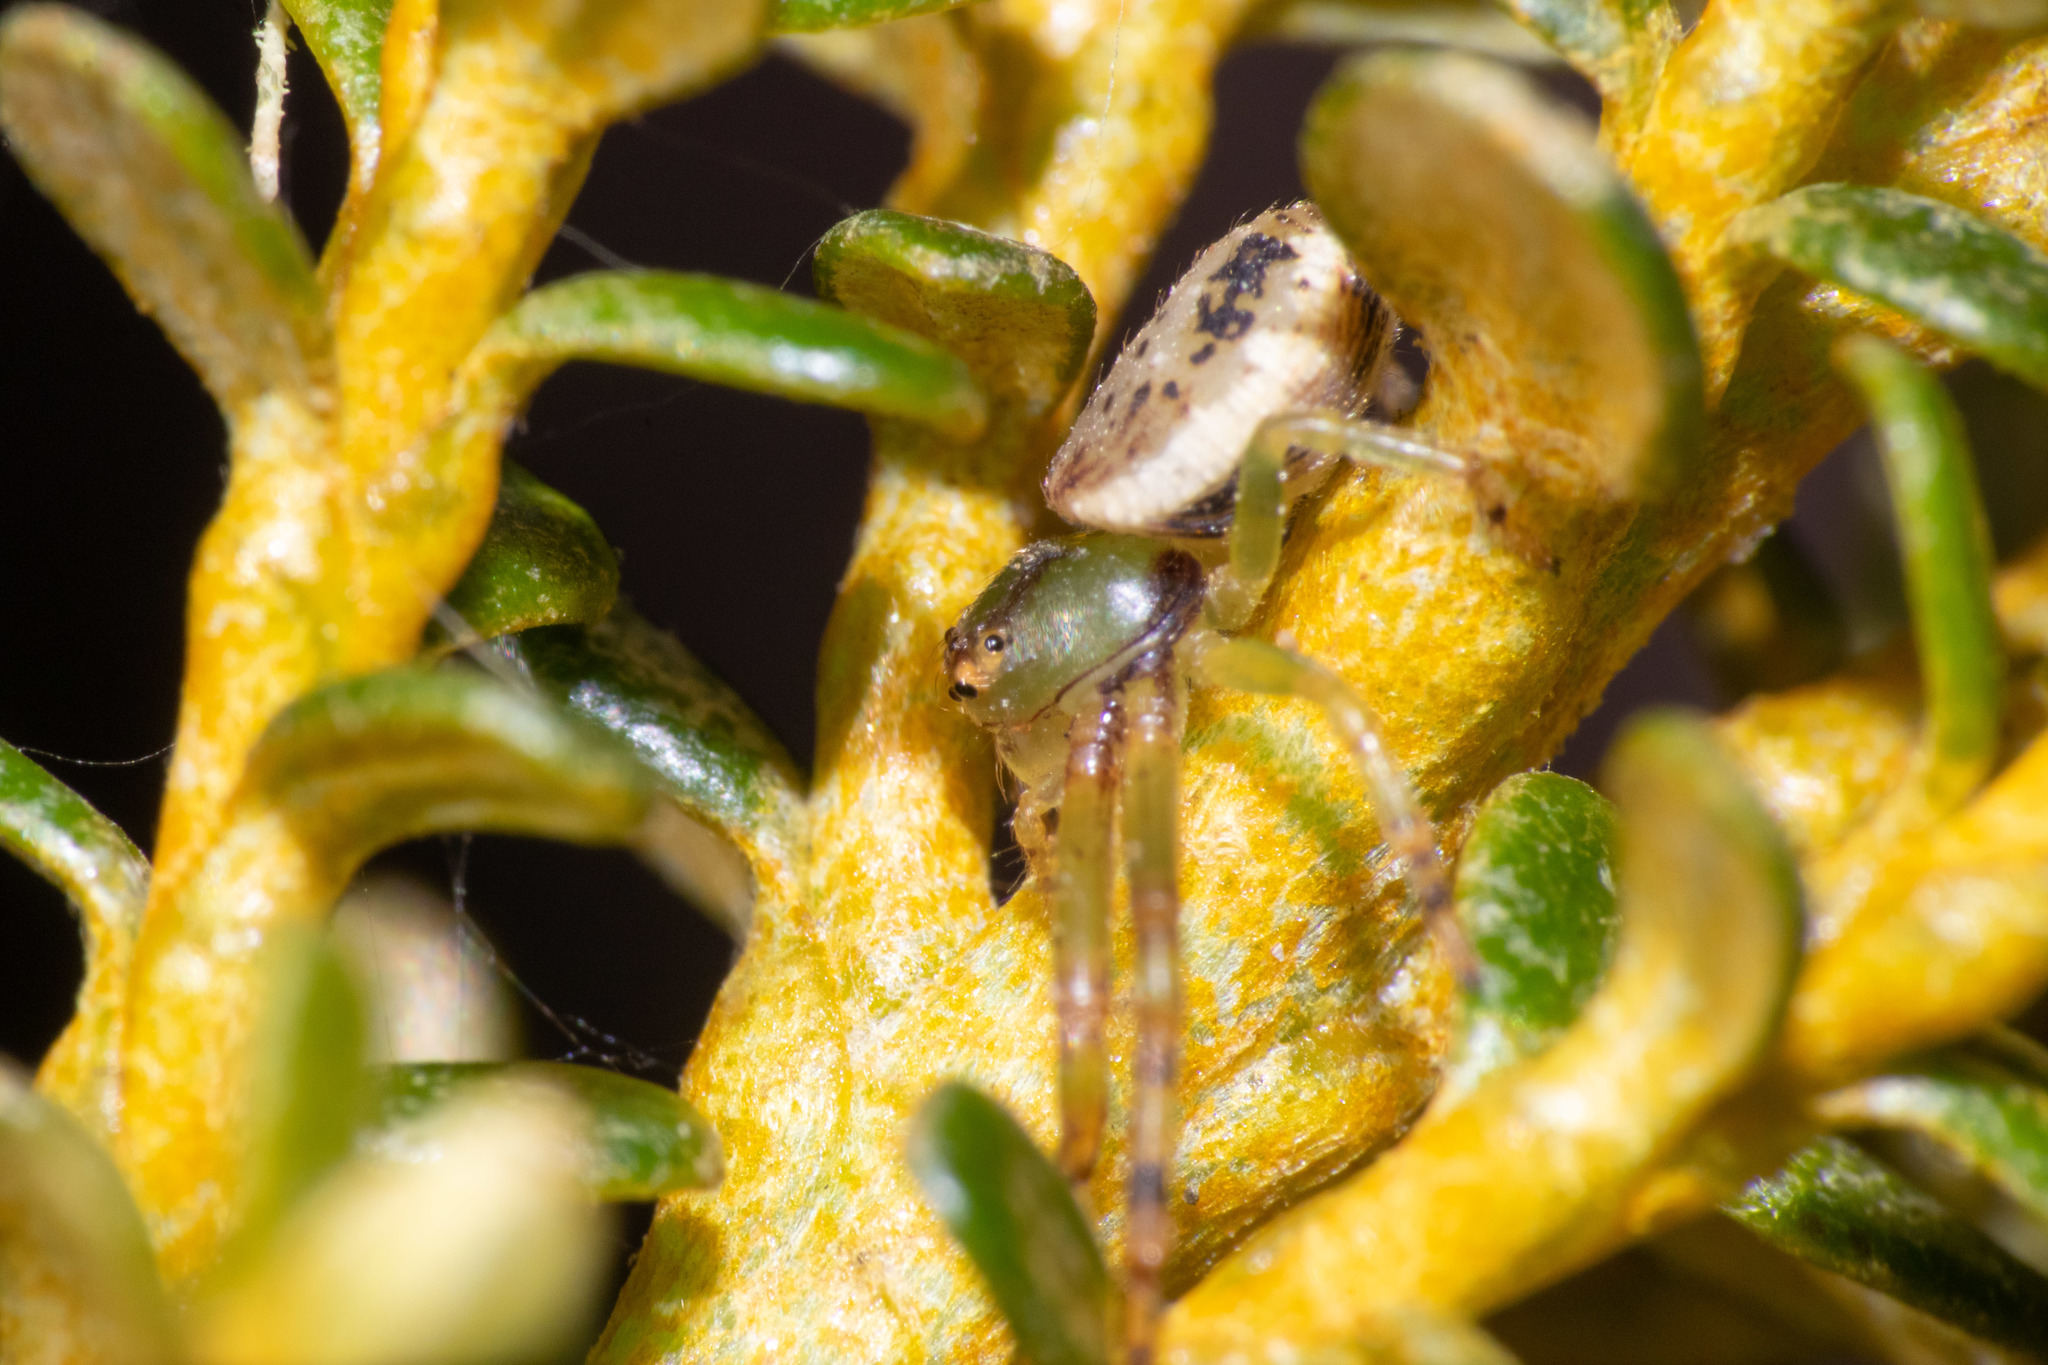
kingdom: Animalia
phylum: Arthropoda
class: Arachnida
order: Araneae
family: Thomisidae
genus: Diaea
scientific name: Diaea ambara
